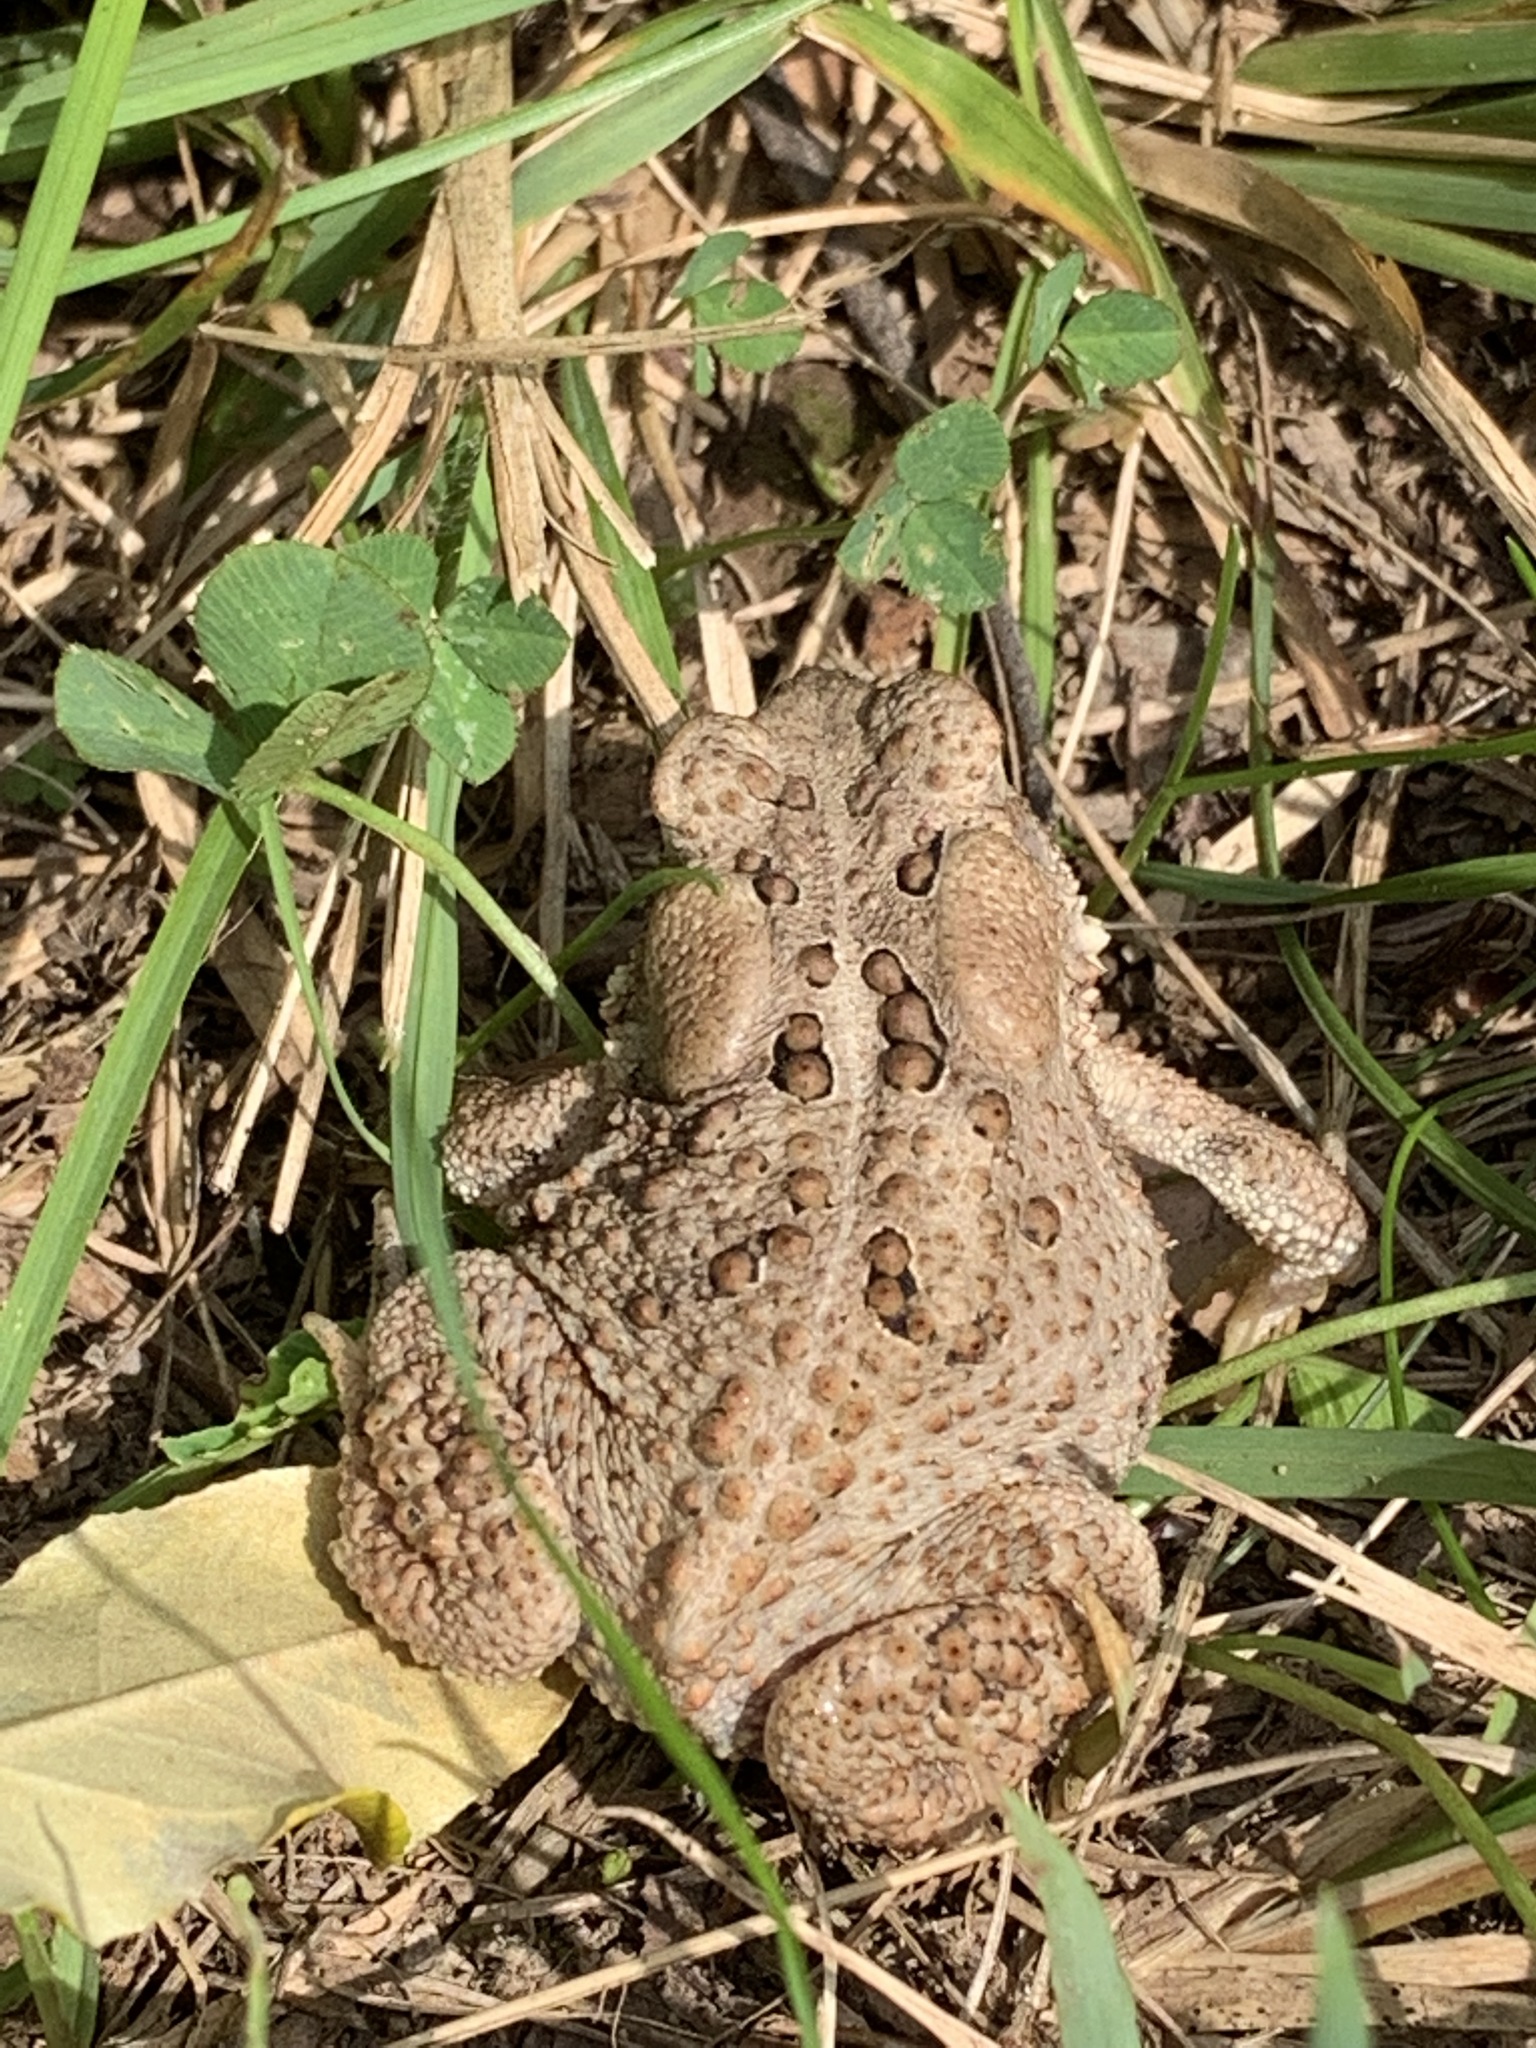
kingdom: Animalia
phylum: Chordata
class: Amphibia
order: Anura
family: Bufonidae
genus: Anaxyrus
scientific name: Anaxyrus americanus
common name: American toad
